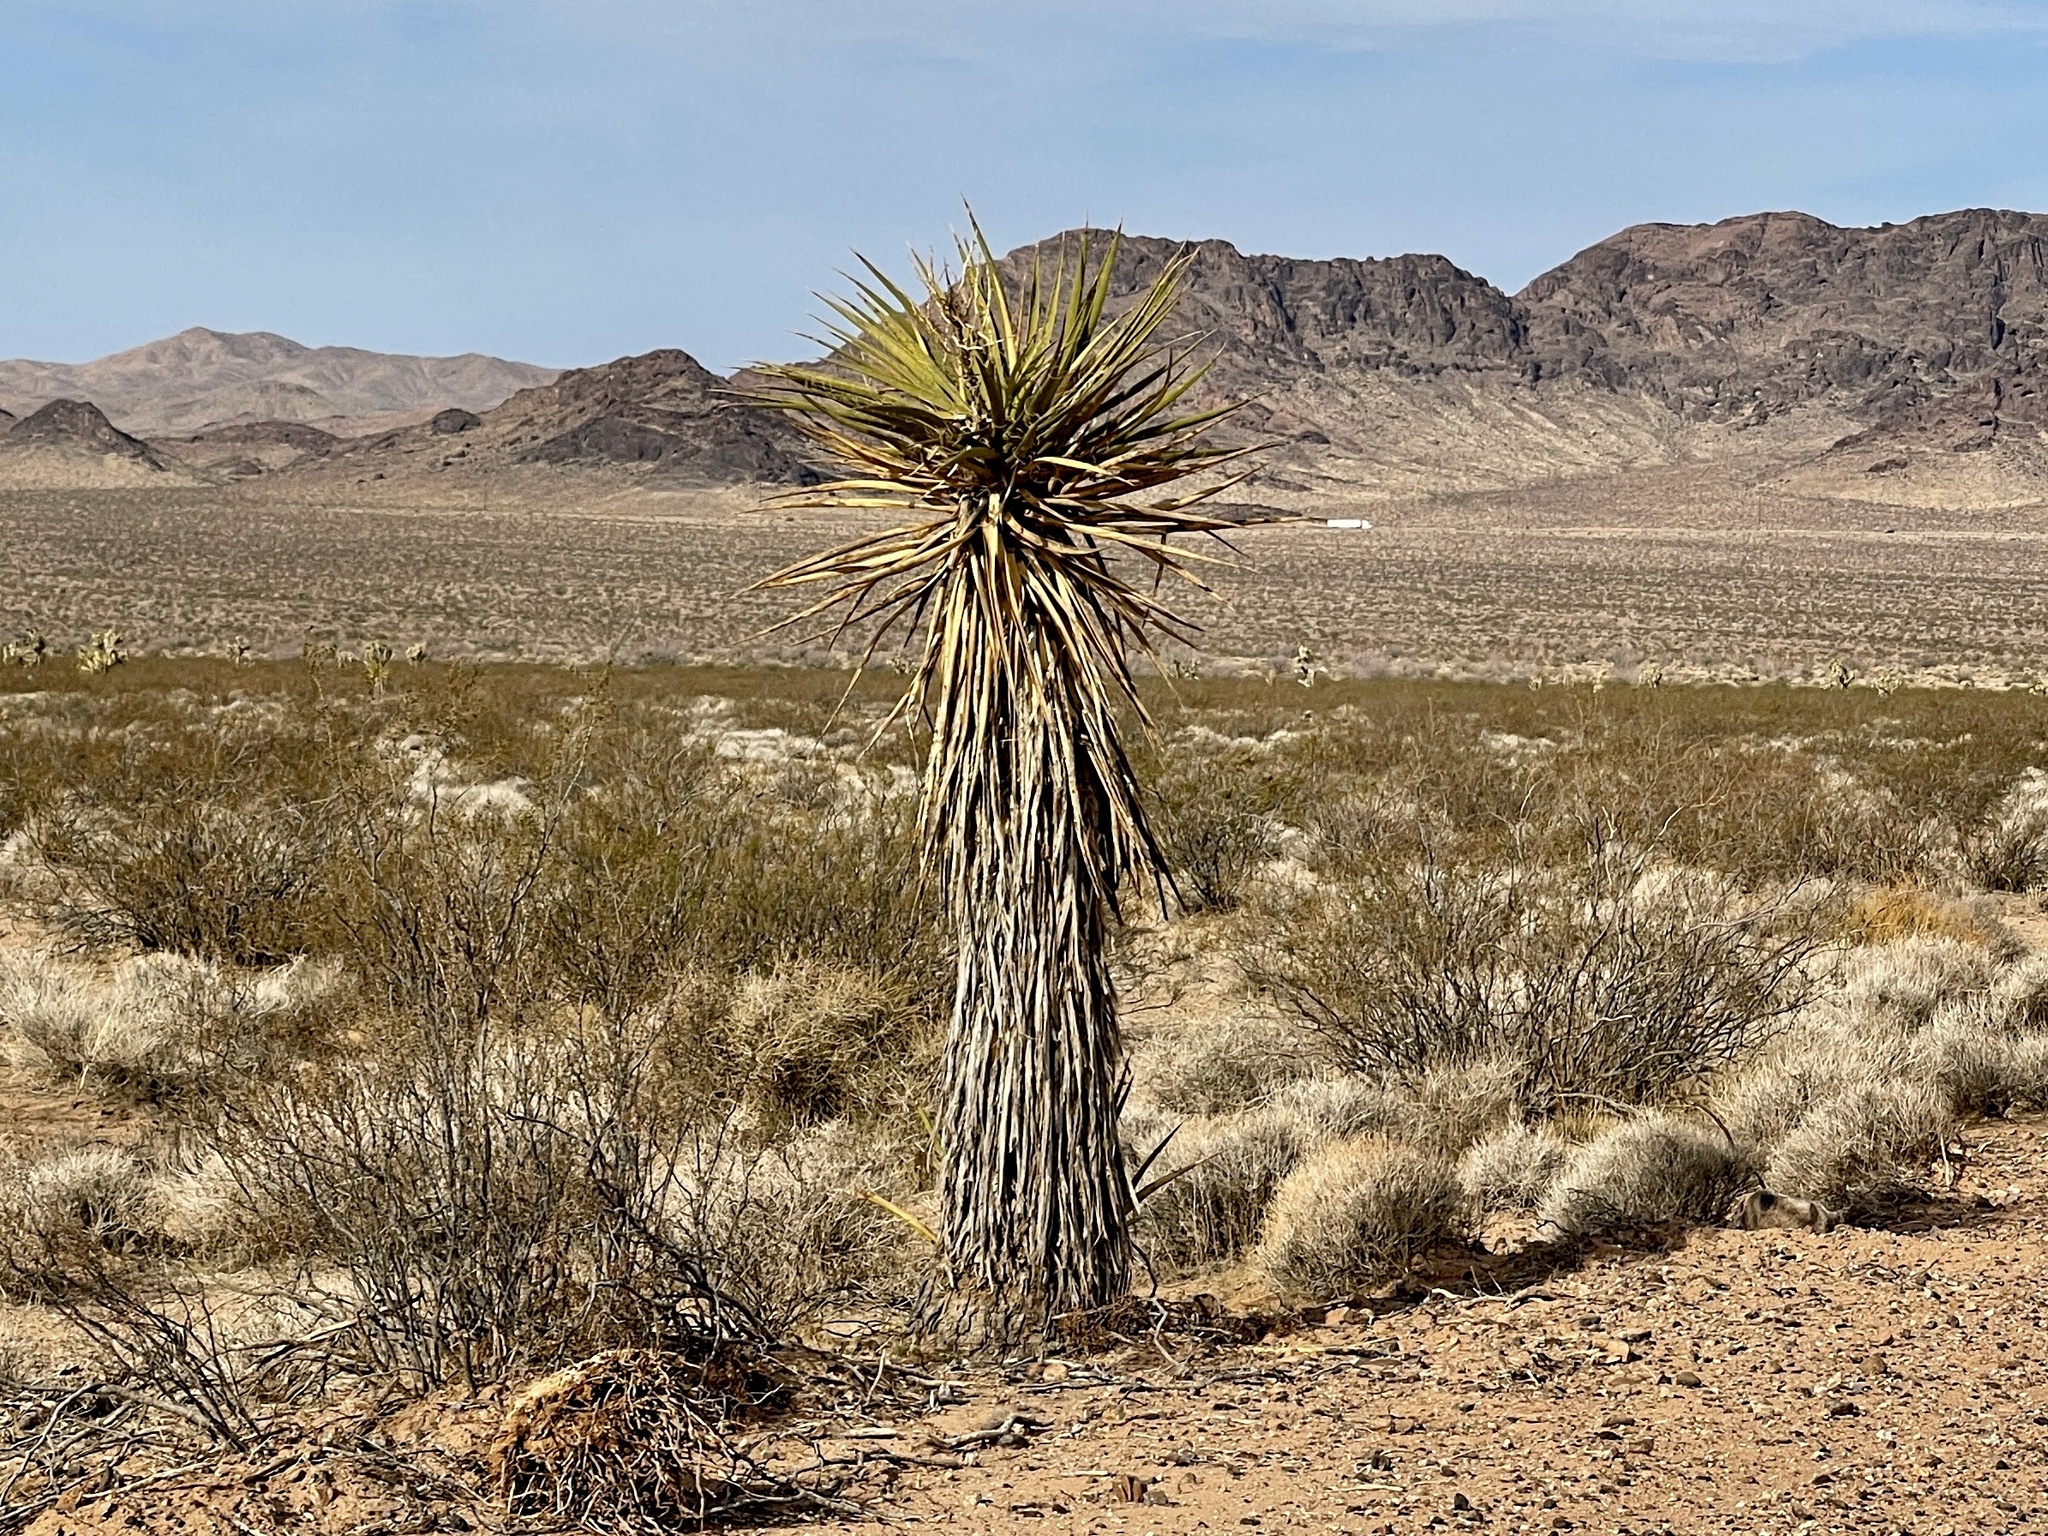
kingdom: Plantae
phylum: Tracheophyta
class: Liliopsida
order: Asparagales
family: Asparagaceae
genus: Yucca
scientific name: Yucca schidigera
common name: Mojave yucca
